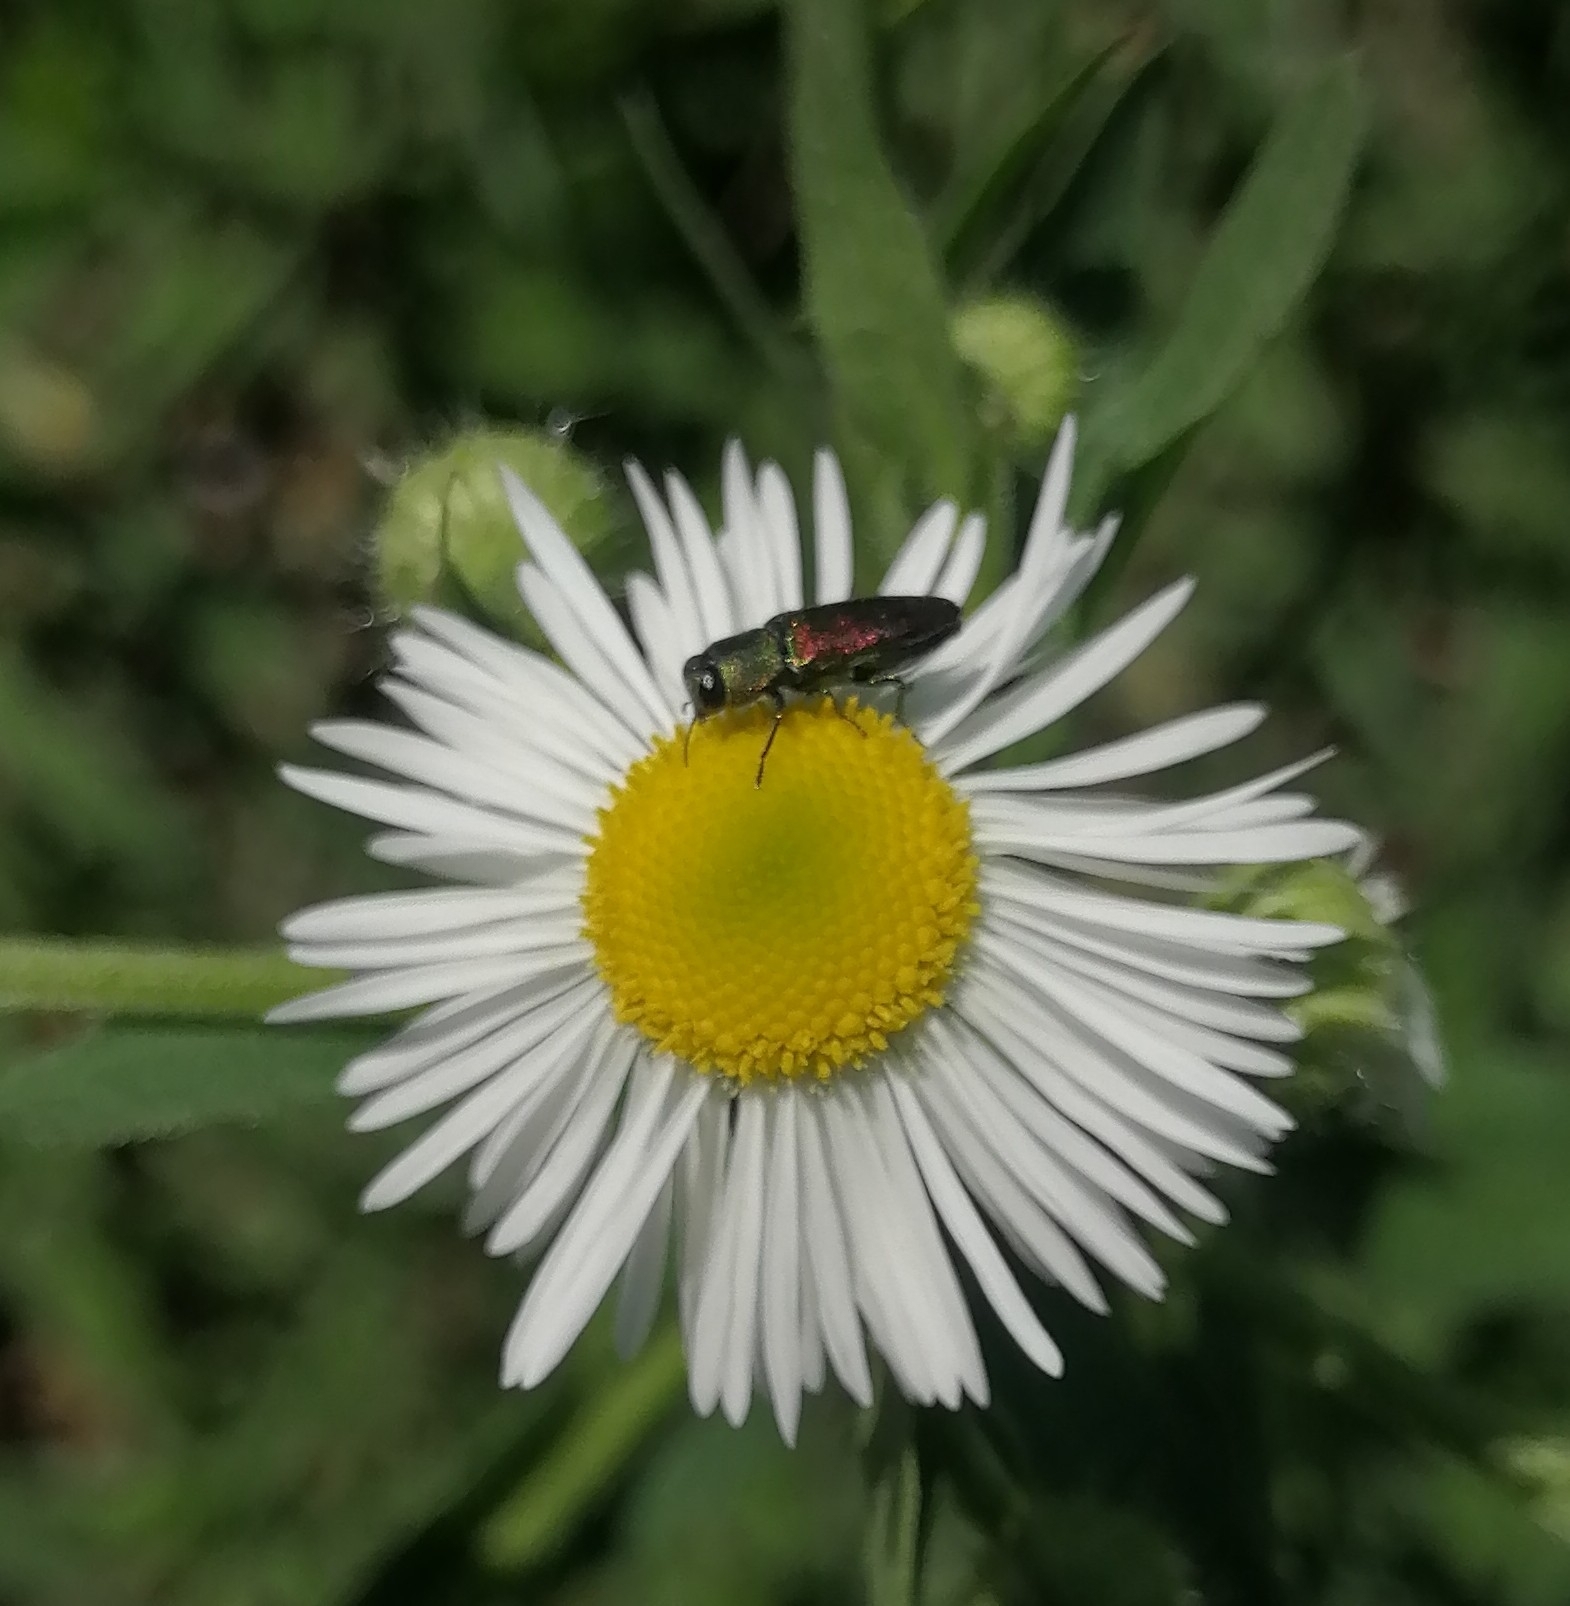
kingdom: Animalia
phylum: Arthropoda
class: Insecta
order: Coleoptera
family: Buprestidae
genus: Anthaxia
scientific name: Anthaxia cichorii
